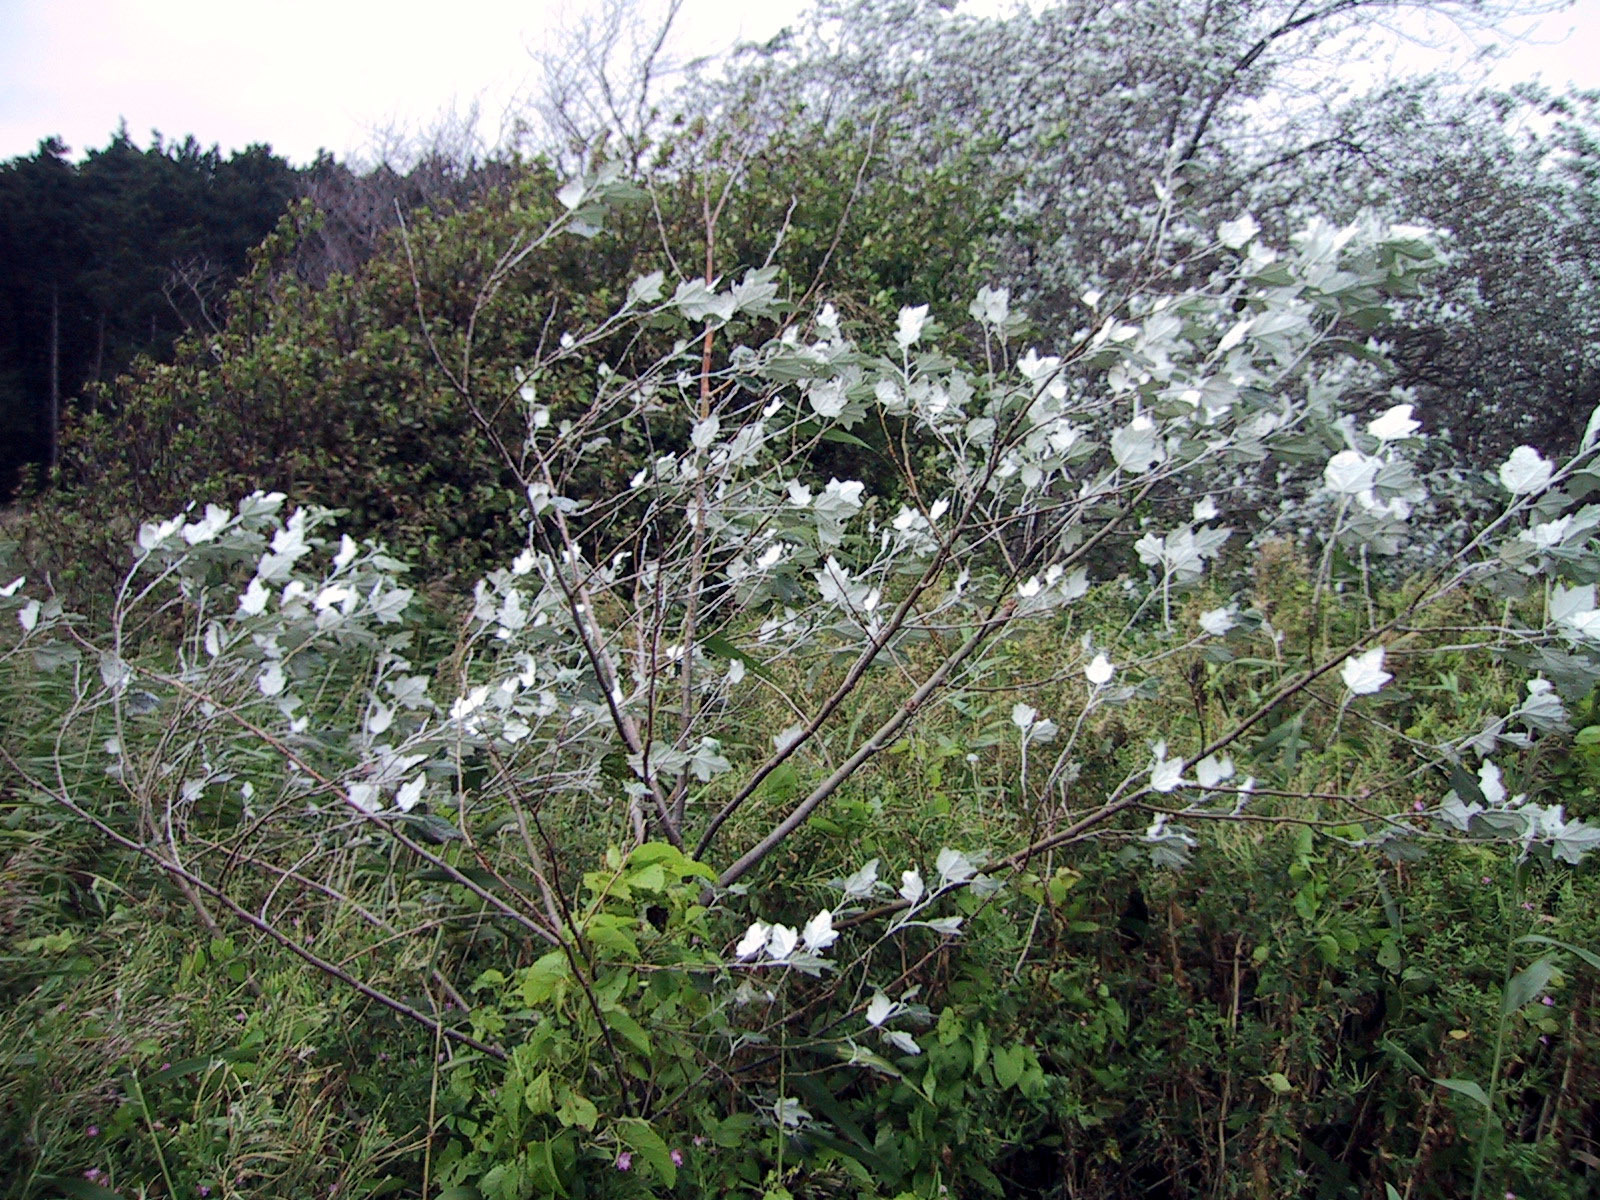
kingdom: Plantae
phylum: Tracheophyta
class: Magnoliopsida
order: Malpighiales
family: Salicaceae
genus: Populus
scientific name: Populus alba
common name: White poplar
